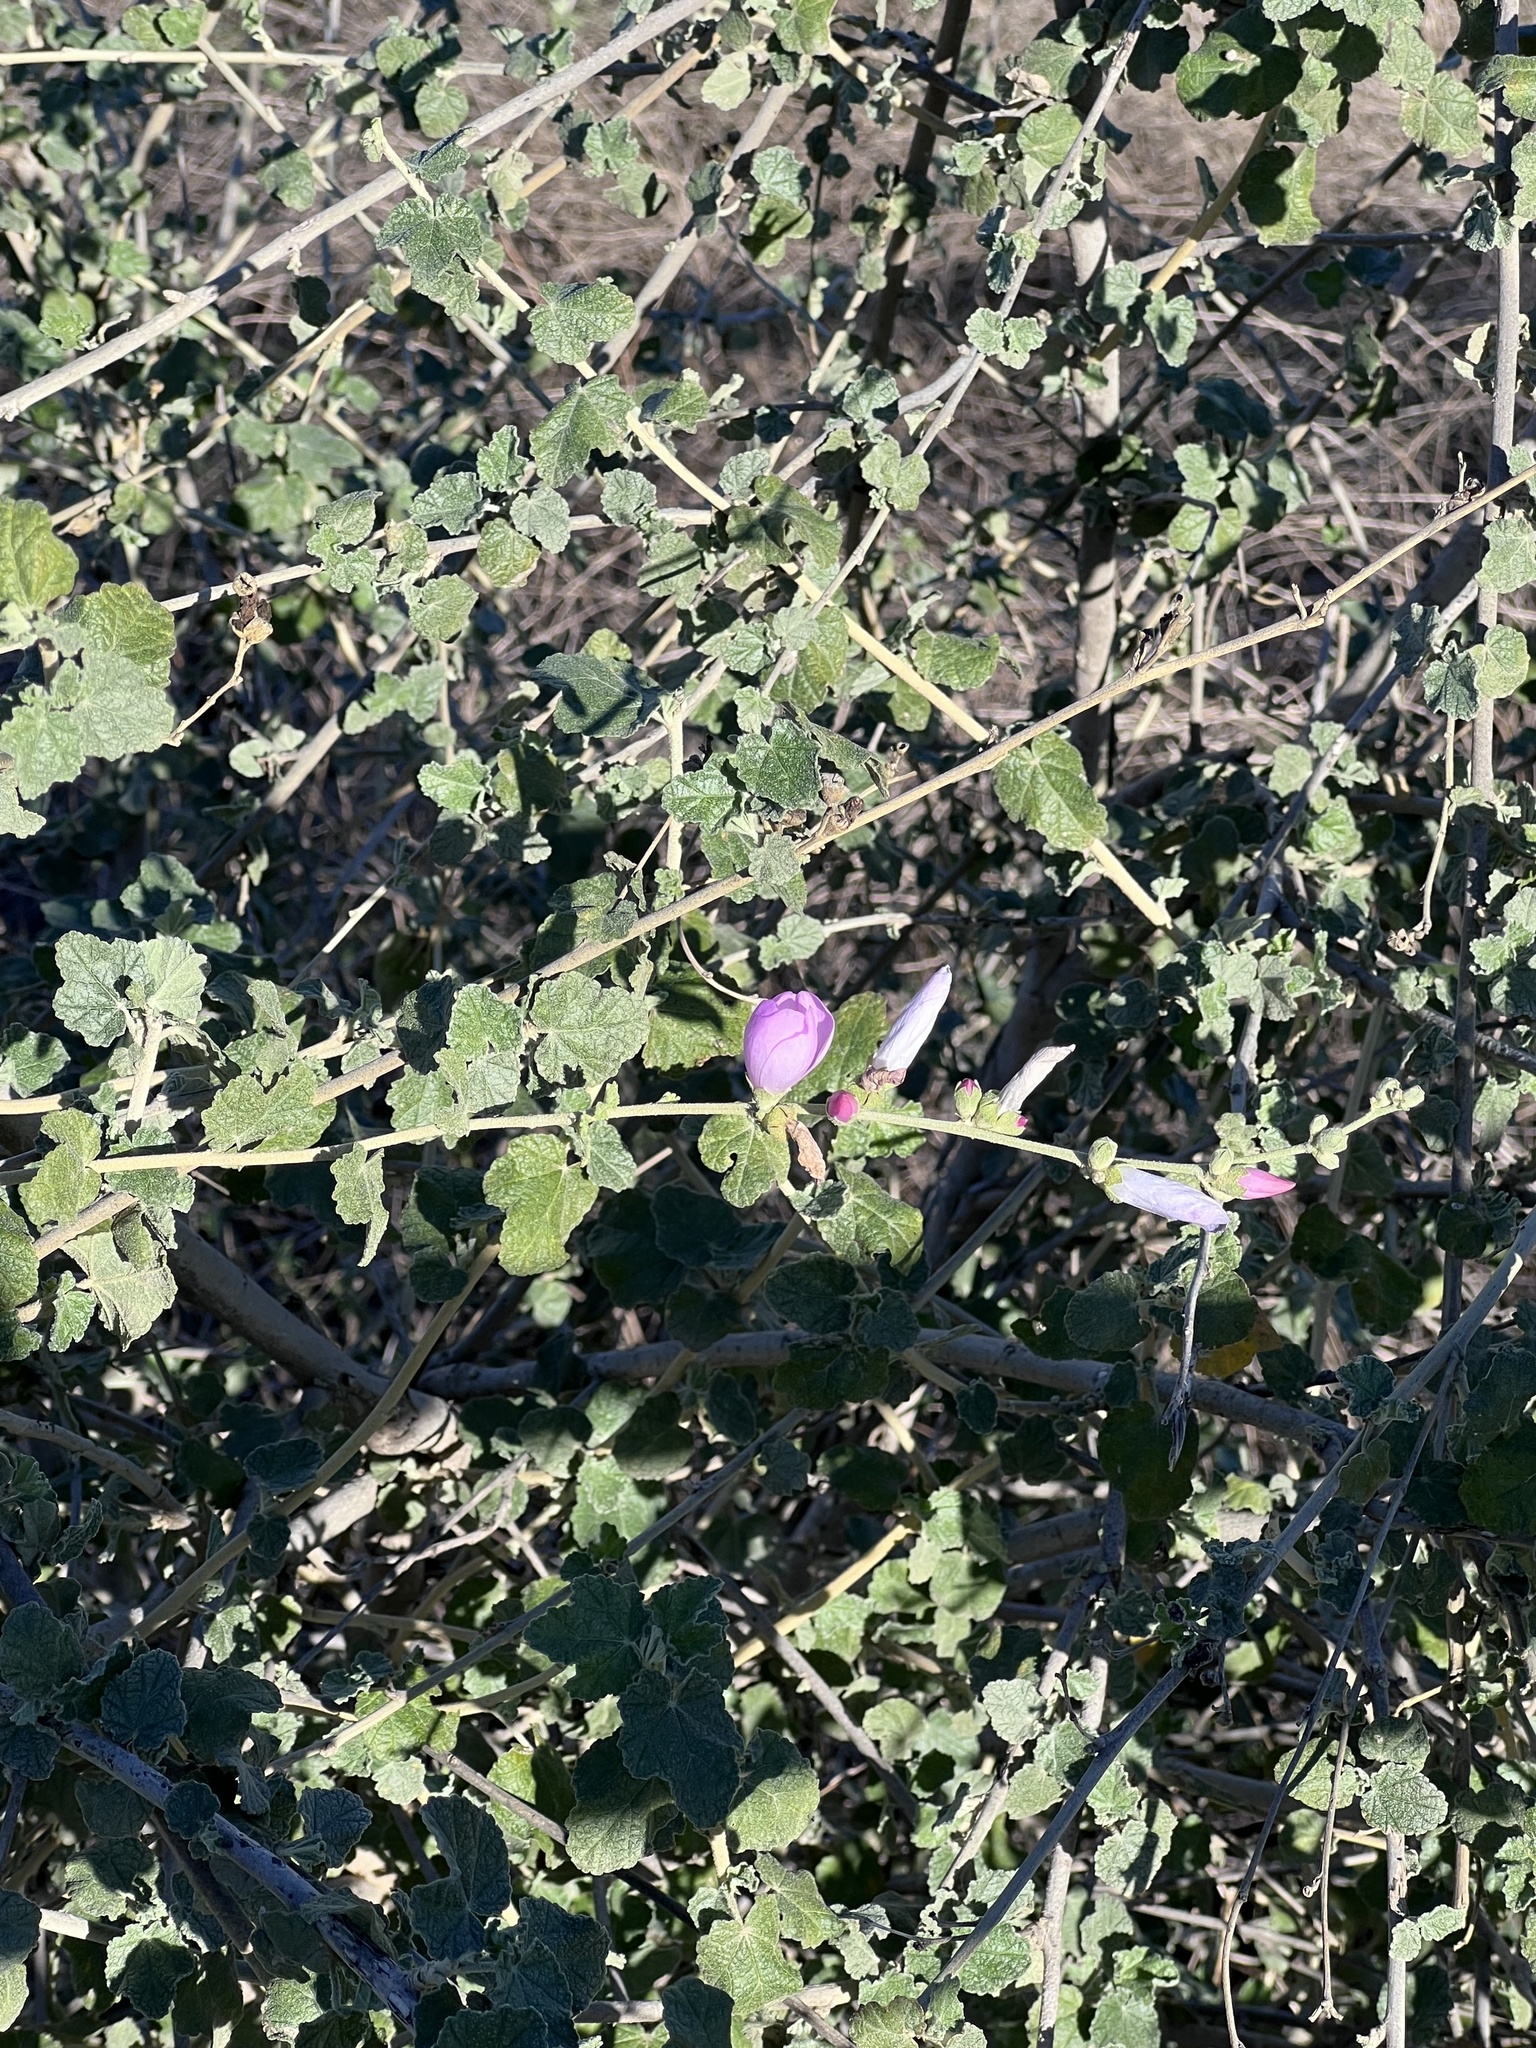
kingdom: Plantae
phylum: Tracheophyta
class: Magnoliopsida
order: Malvales
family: Malvaceae
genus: Malacothamnus
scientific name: Malacothamnus fasciculatus
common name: Sant cruz island bush-mallow
